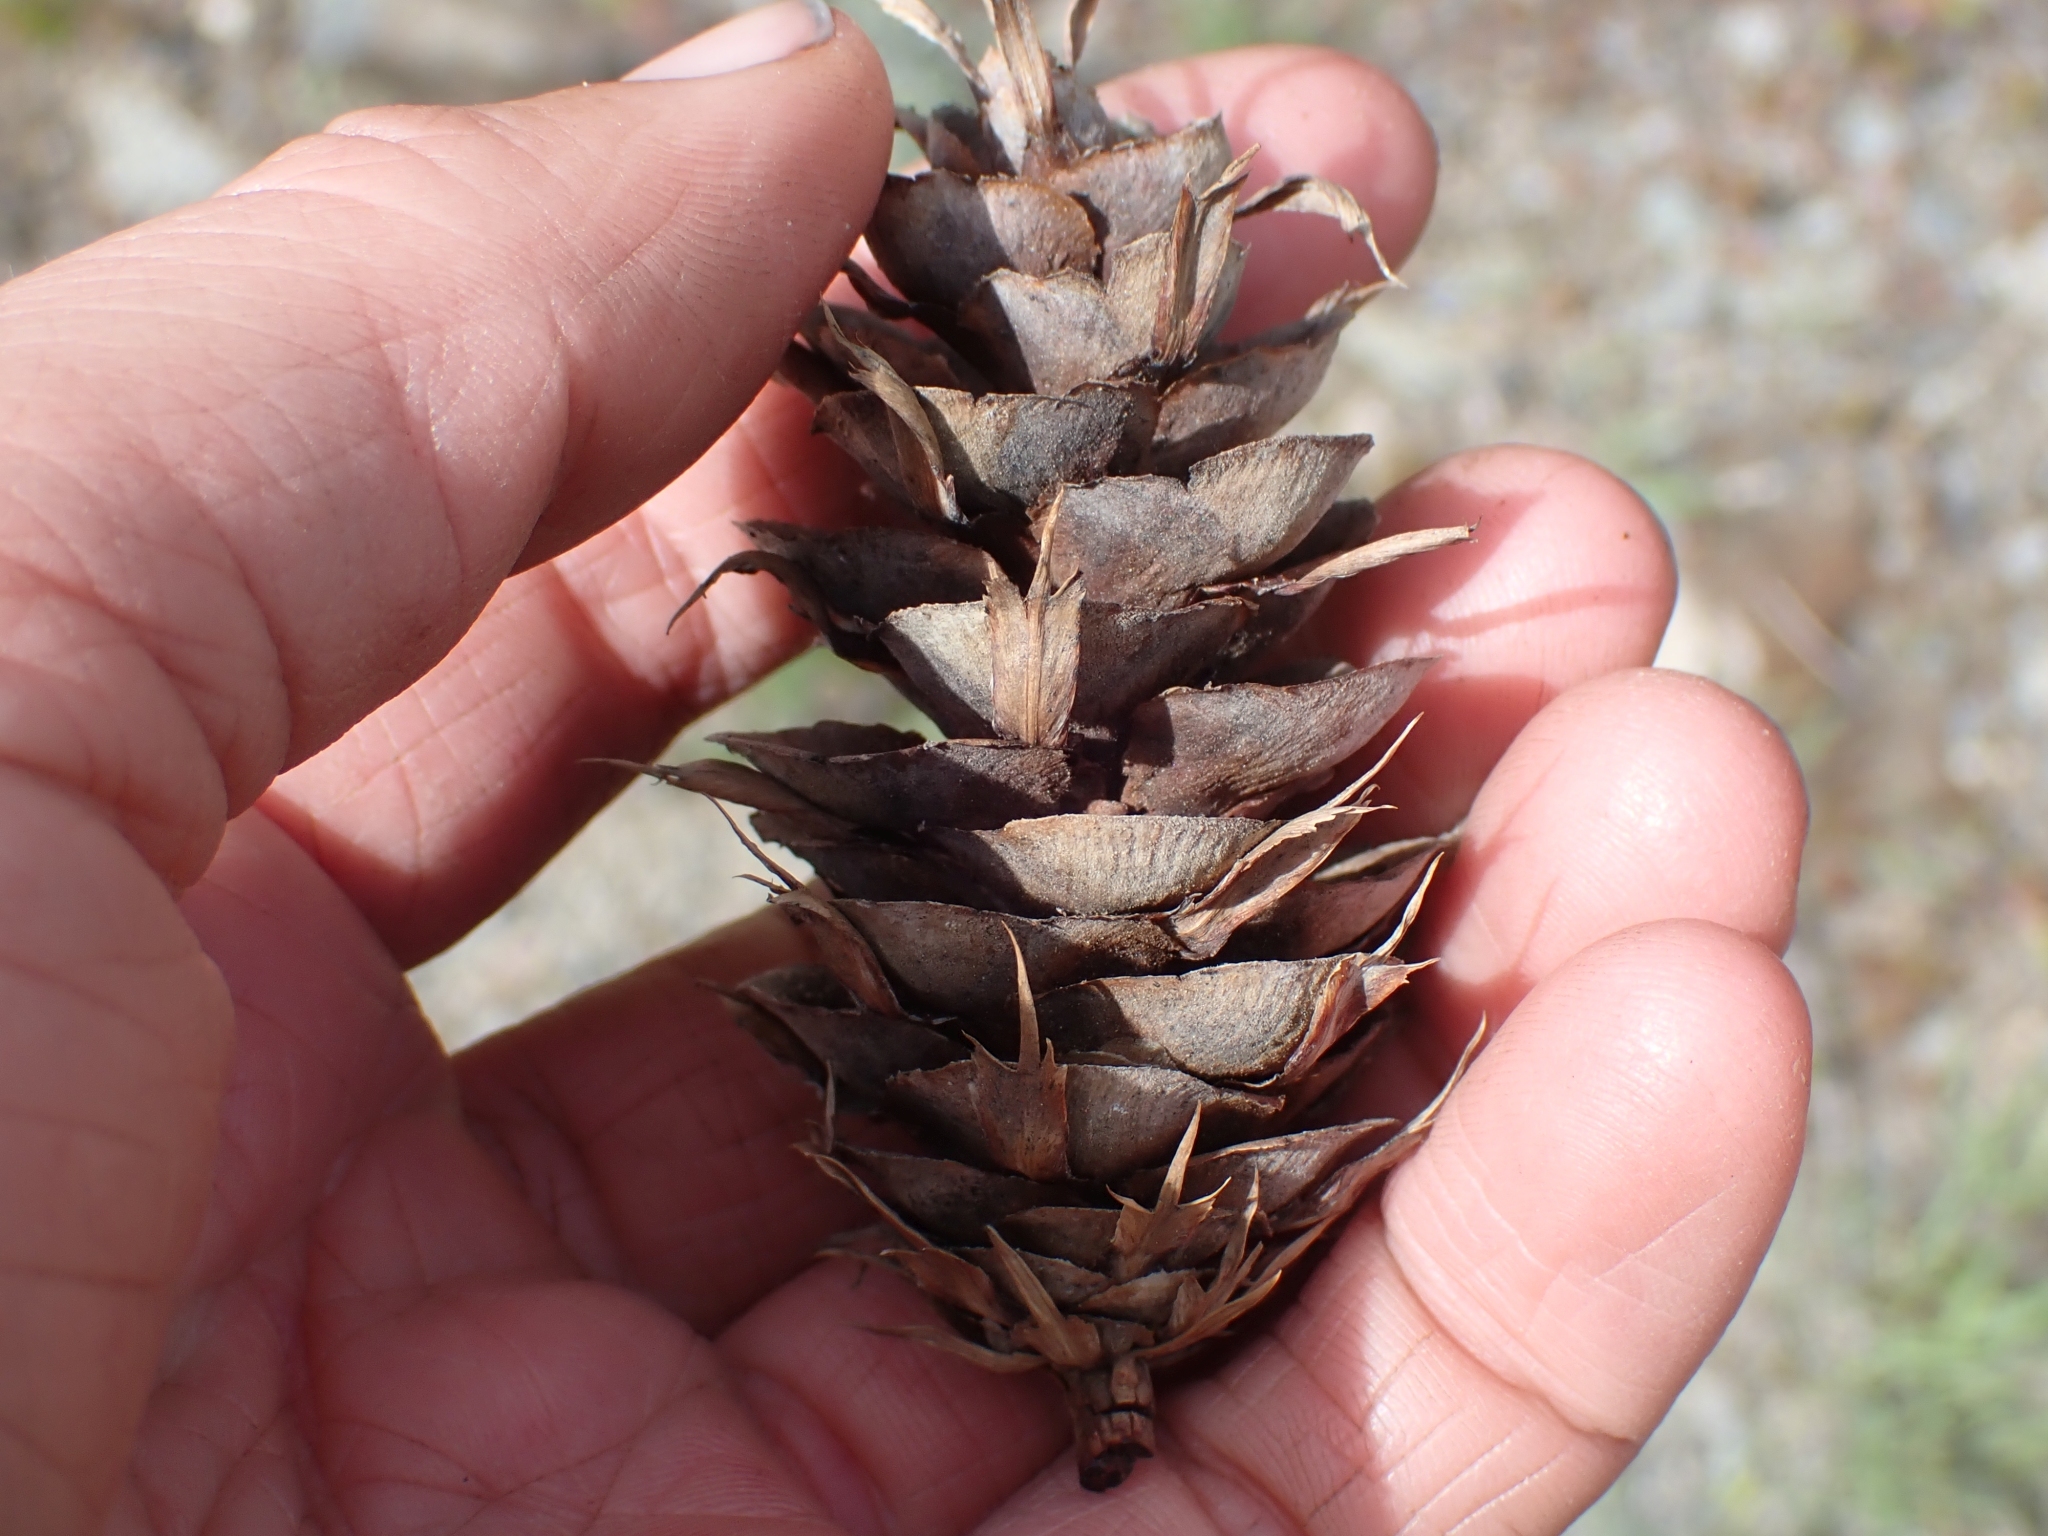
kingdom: Plantae
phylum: Tracheophyta
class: Pinopsida
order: Pinales
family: Pinaceae
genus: Pseudotsuga
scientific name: Pseudotsuga menziesii
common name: Douglas fir
